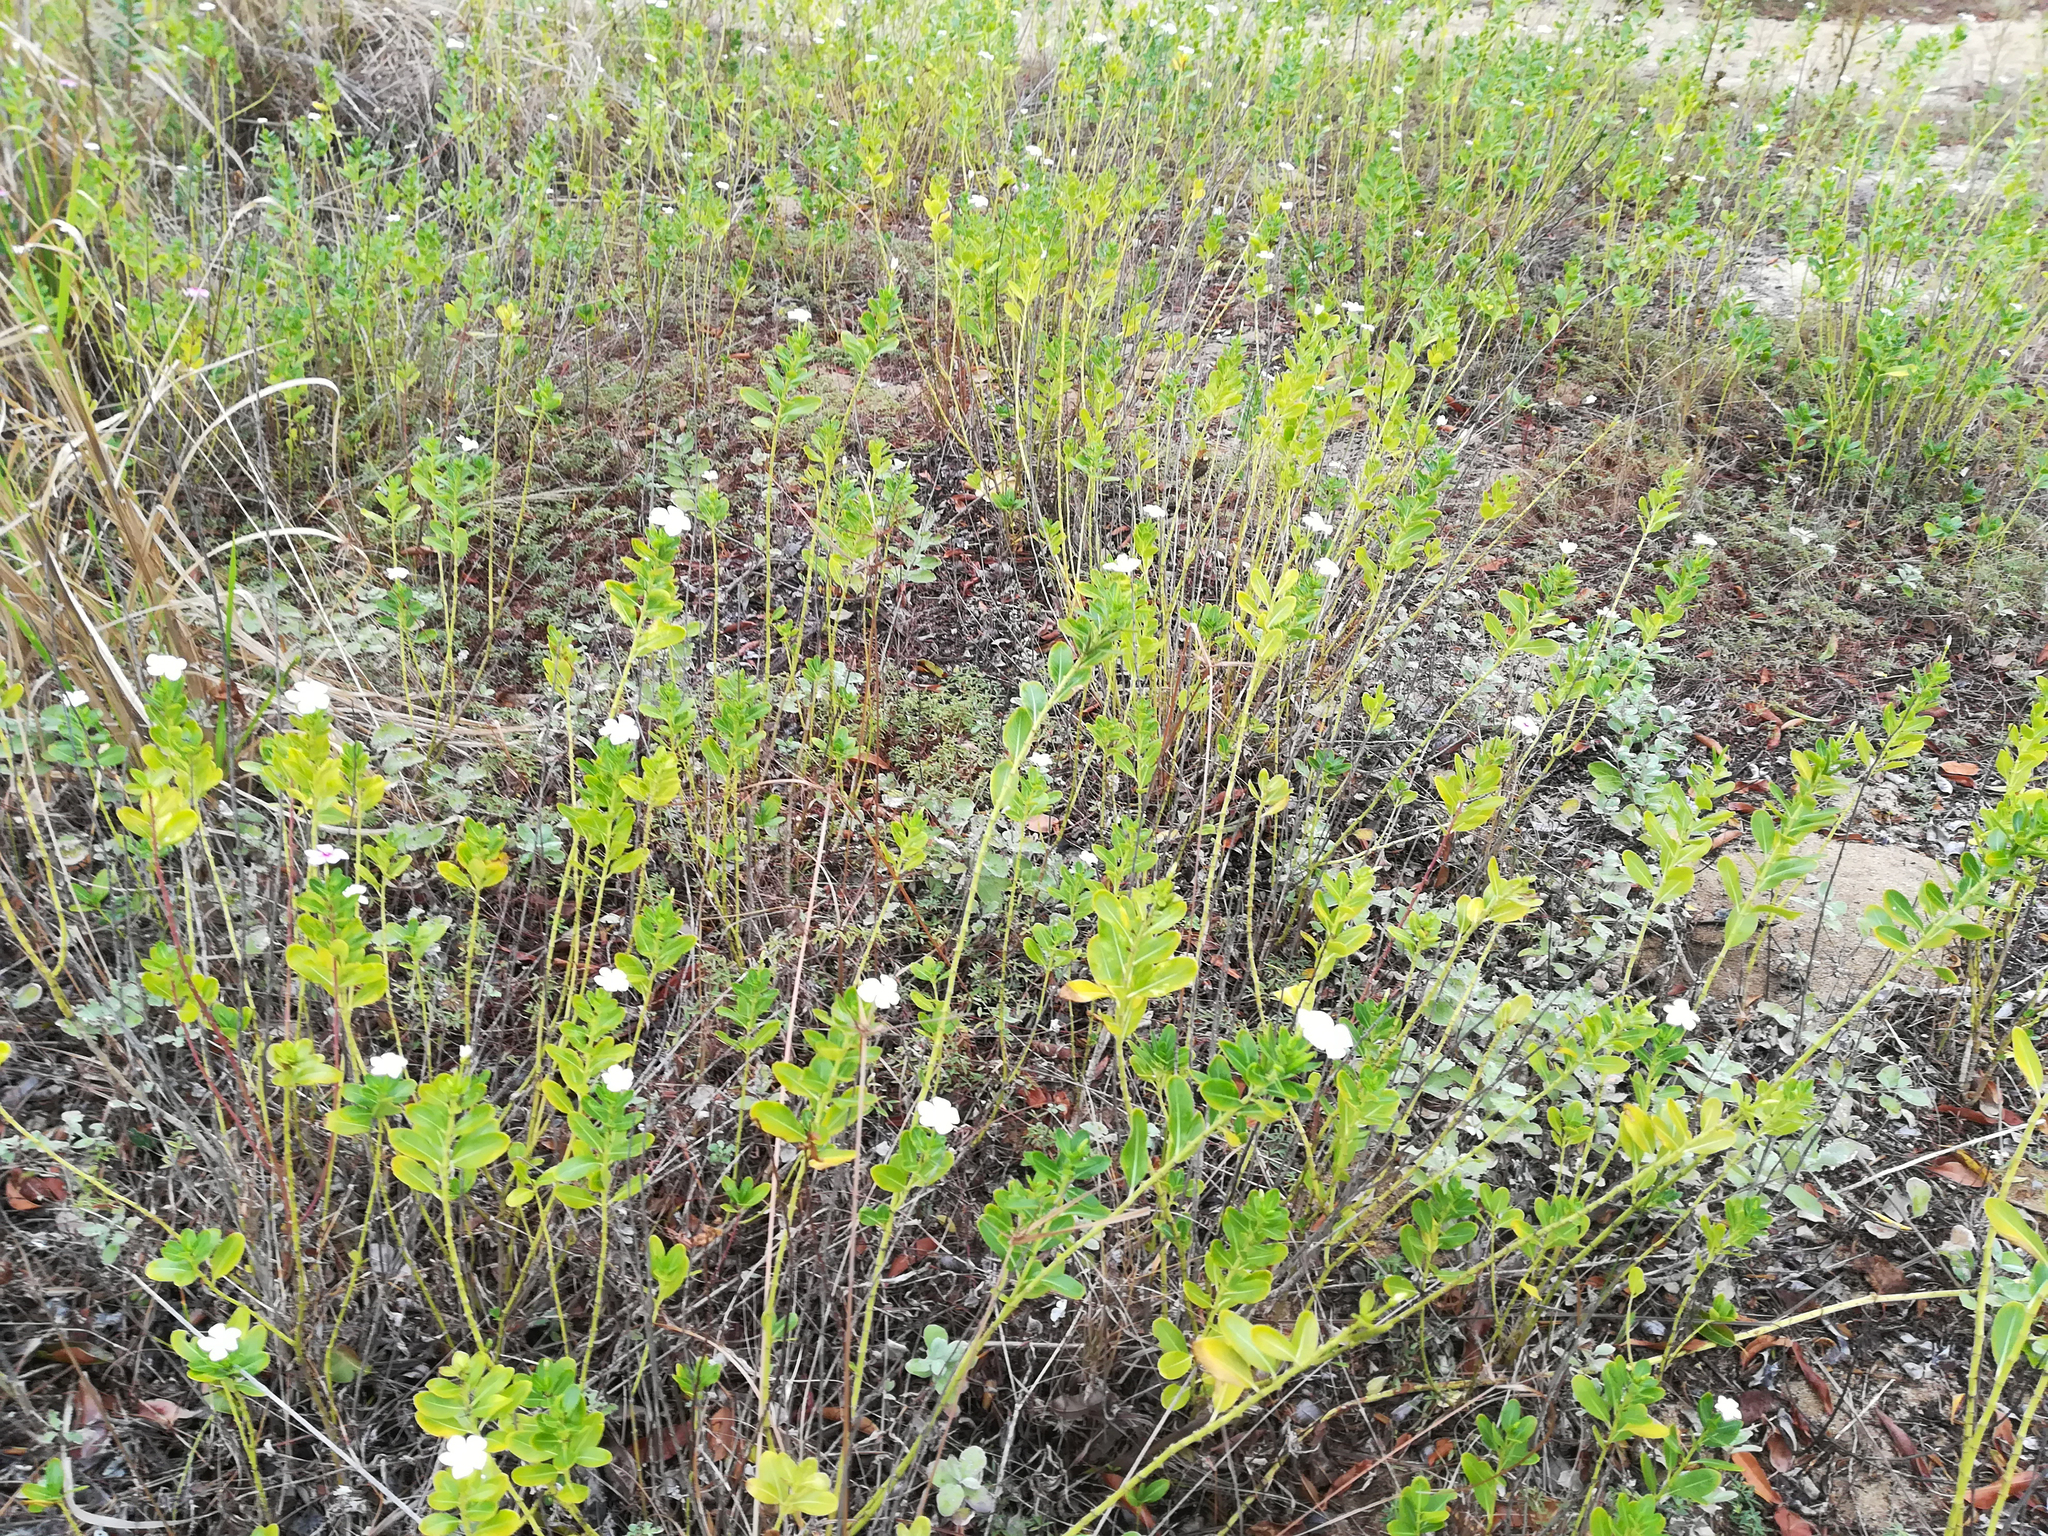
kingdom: Plantae
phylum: Tracheophyta
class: Magnoliopsida
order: Gentianales
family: Apocynaceae
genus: Catharanthus
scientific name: Catharanthus roseus
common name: Madagascar periwinkle
